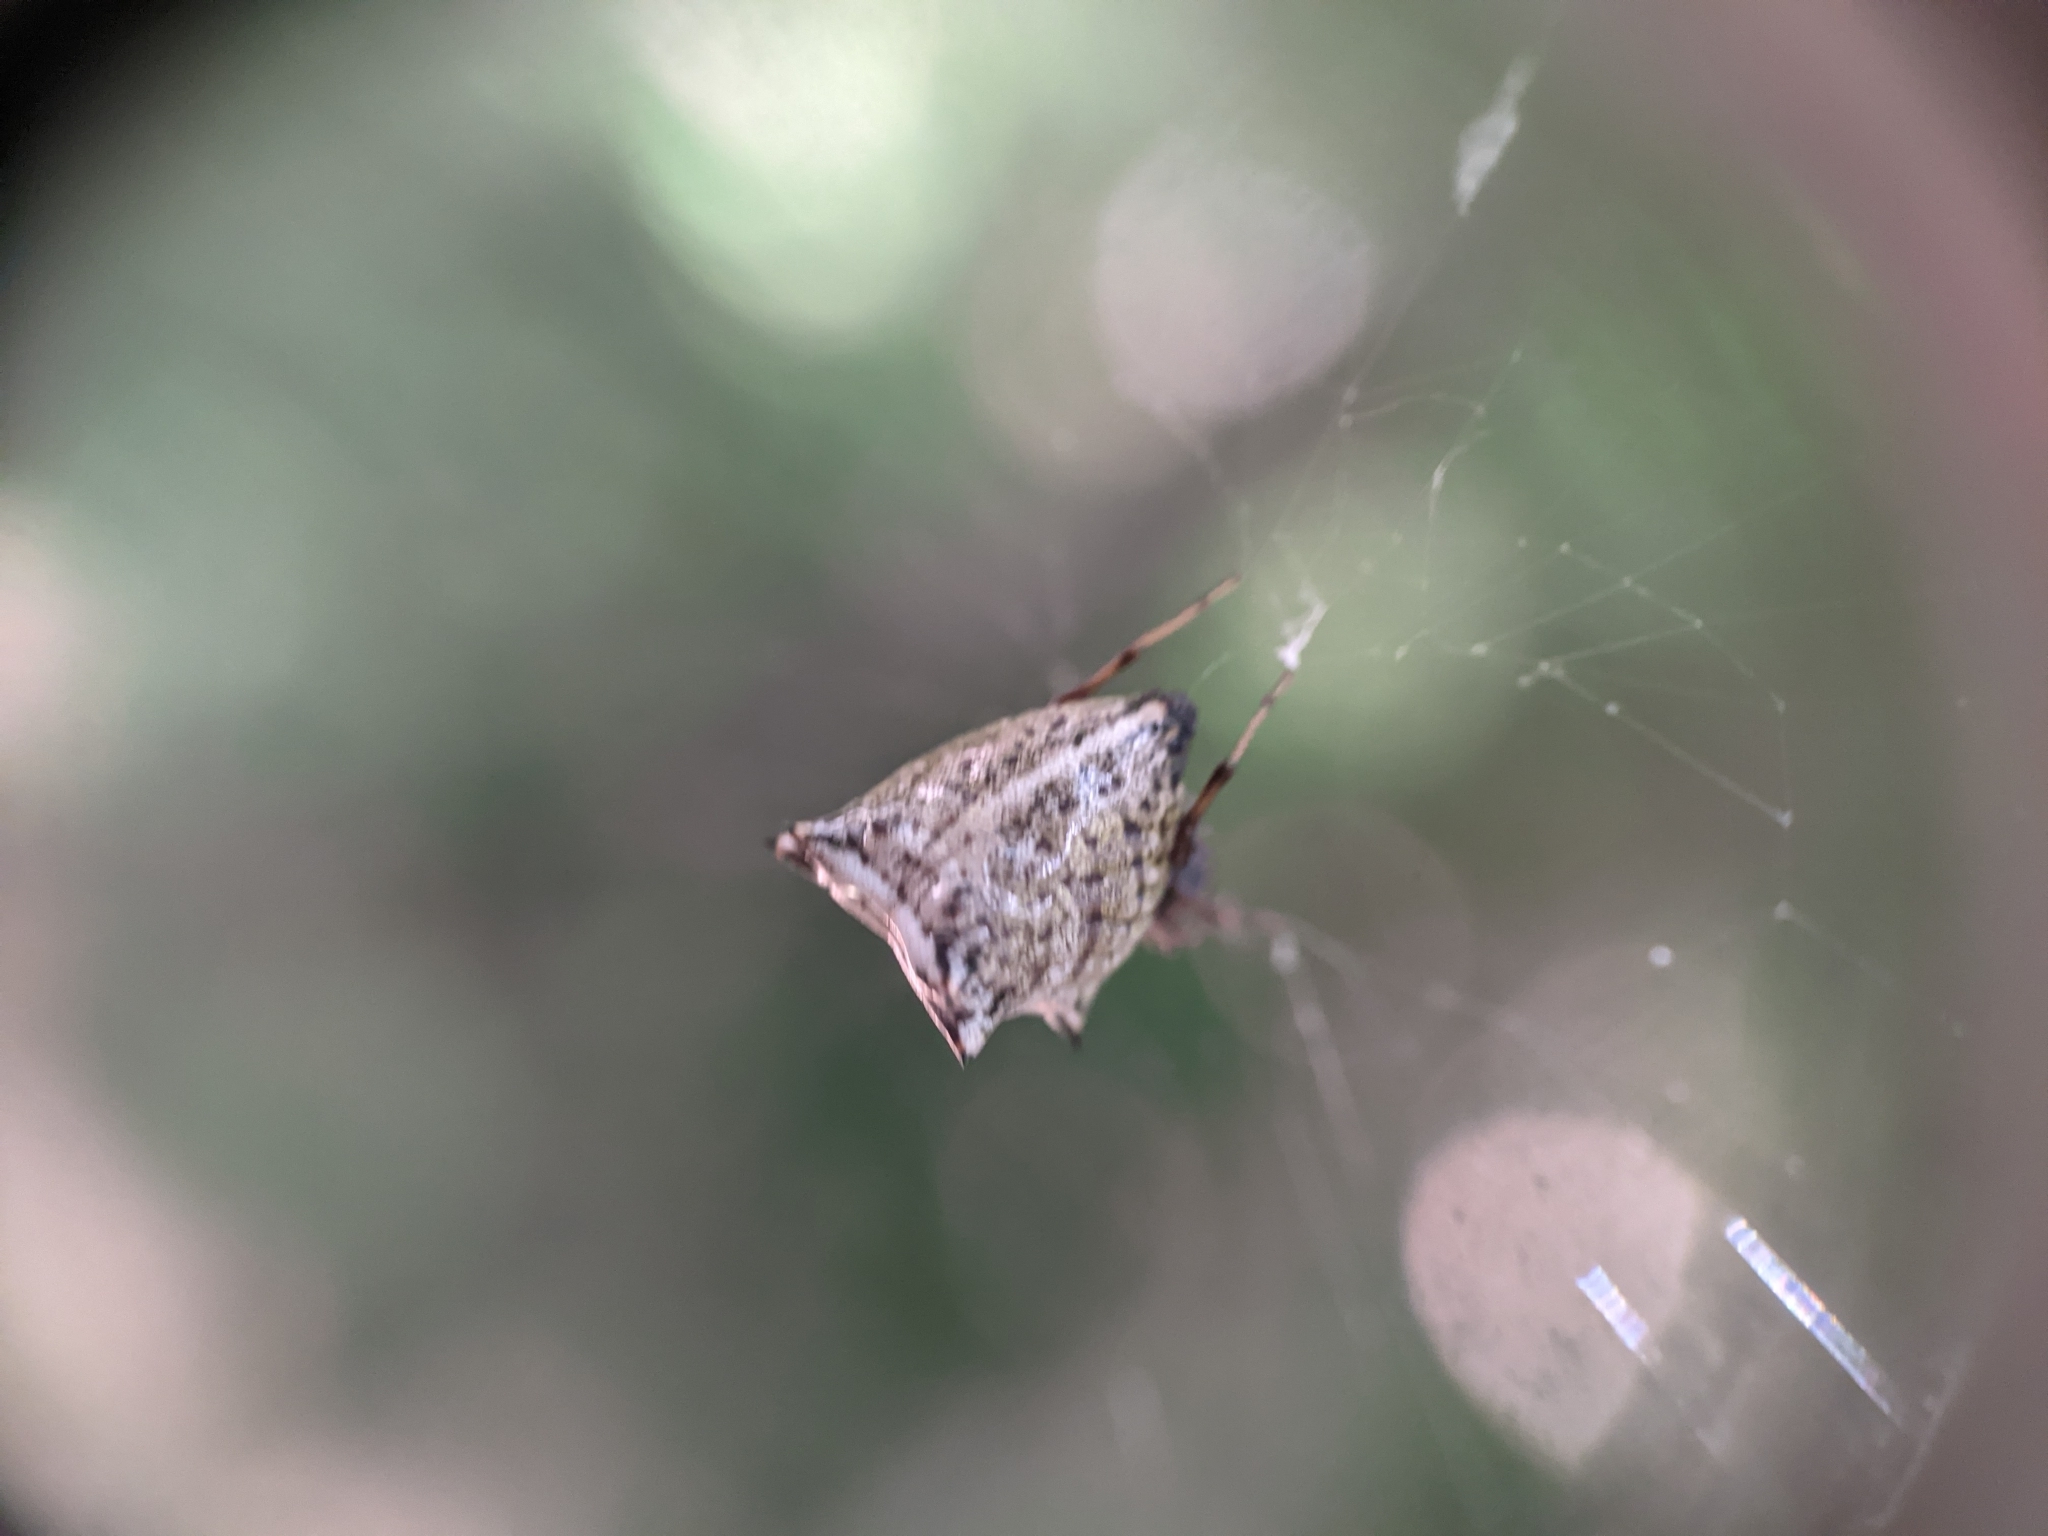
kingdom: Animalia
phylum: Arthropoda
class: Arachnida
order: Araneae
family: Araneidae
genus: Micrathena
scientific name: Micrathena gracilis
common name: Orb weavers
